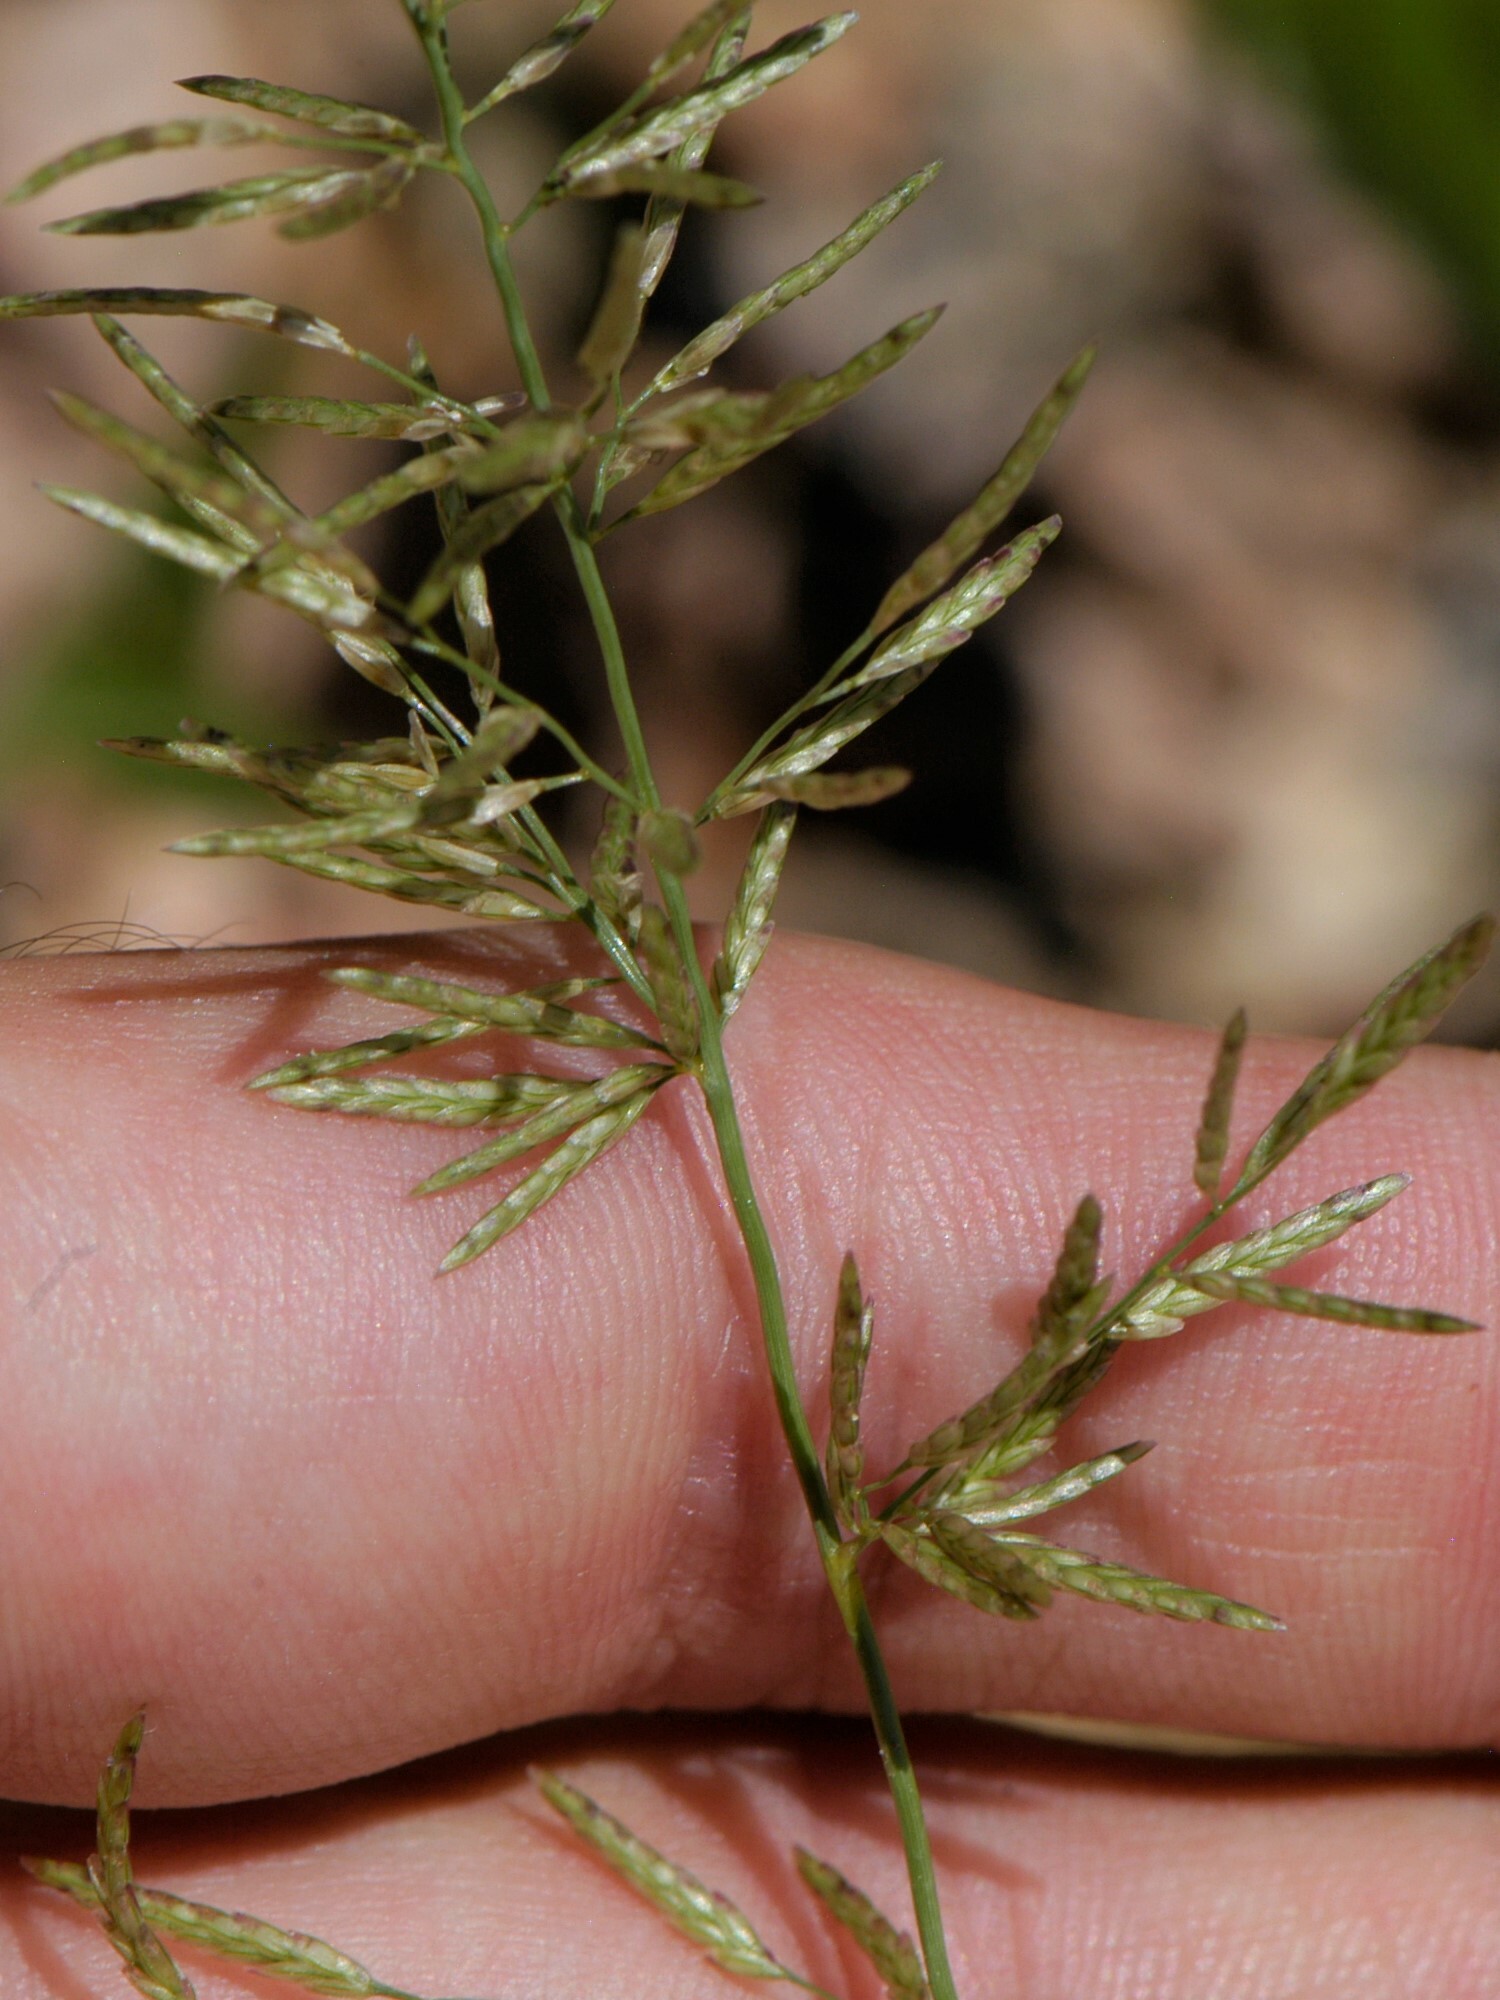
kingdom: Plantae
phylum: Tracheophyta
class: Liliopsida
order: Poales
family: Poaceae
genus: Eragrostis
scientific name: Eragrostis barrelieri
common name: Mediterranean lovegrass
